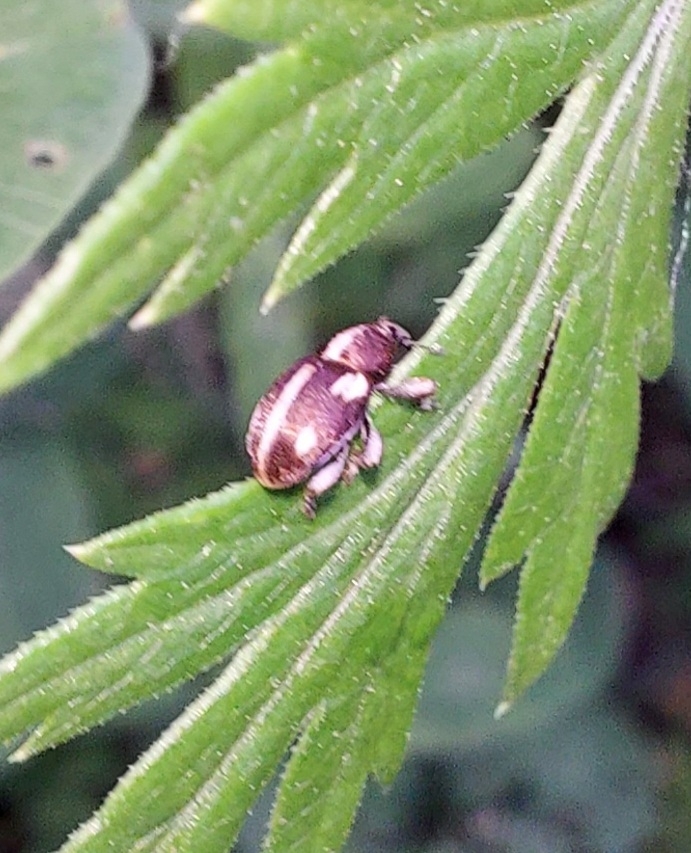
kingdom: Animalia
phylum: Arthropoda
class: Insecta
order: Coleoptera
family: Curculionidae
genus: Tychius
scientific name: Tychius quinquepunctatus
